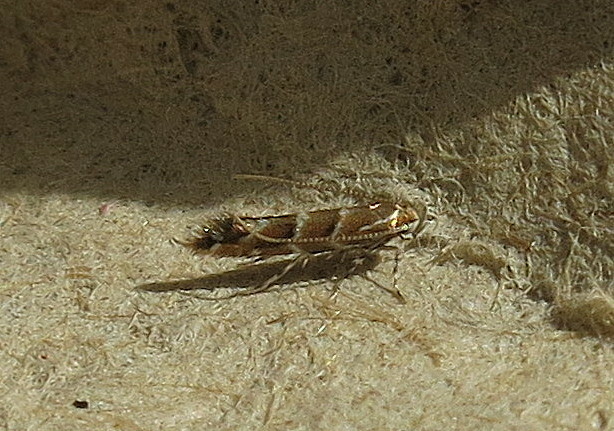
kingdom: Animalia
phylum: Arthropoda
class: Insecta
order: Lepidoptera
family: Gracillariidae
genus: Cameraria
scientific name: Cameraria ohridella
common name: Horse-chestnut leaf-miner
